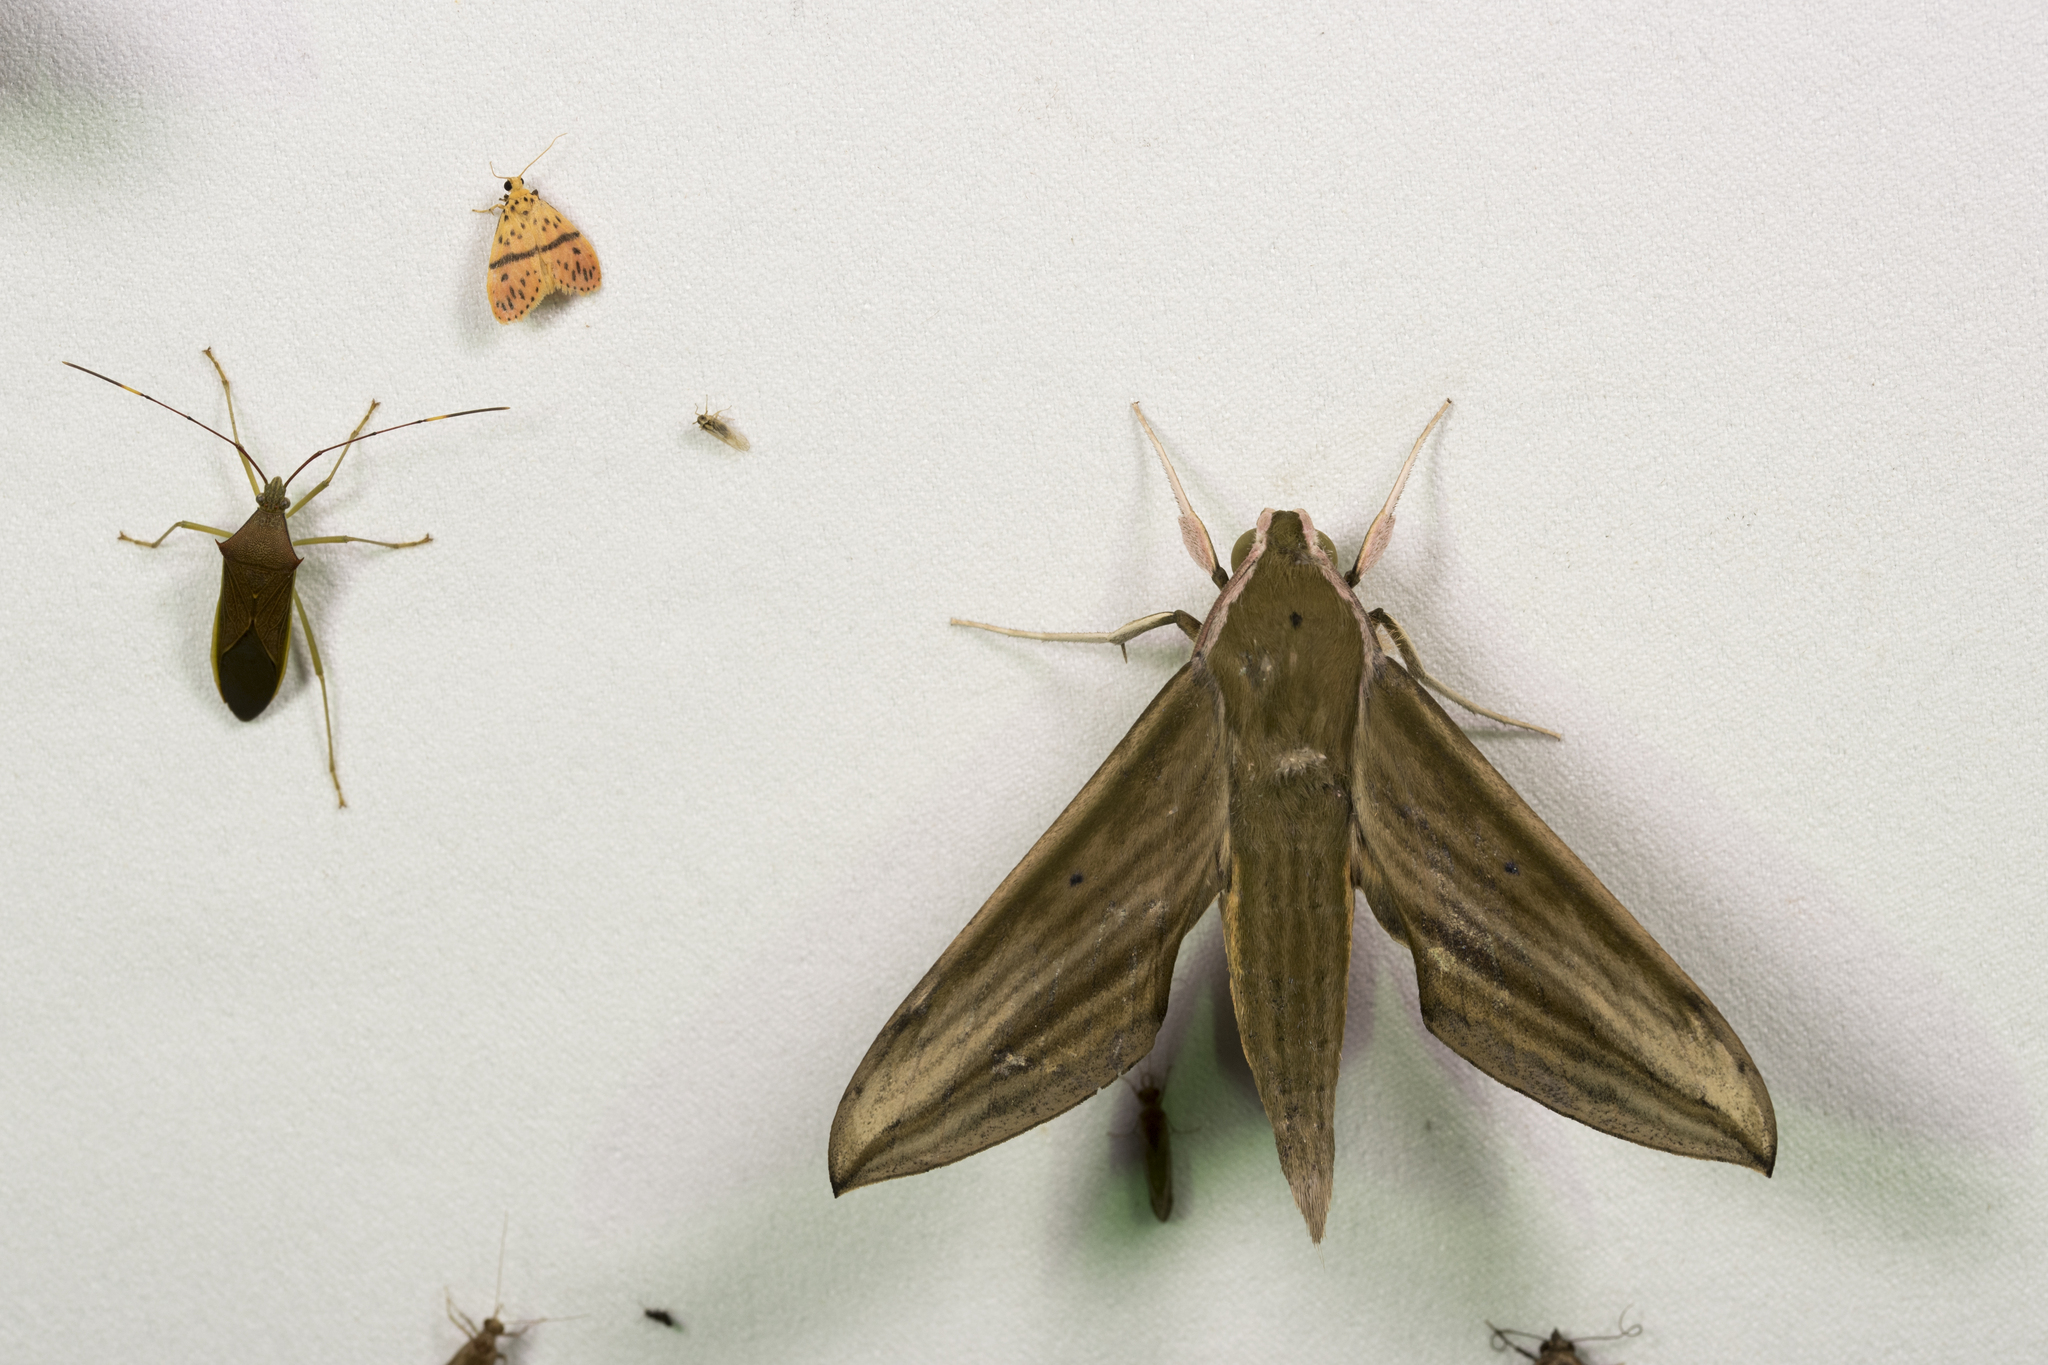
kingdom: Animalia
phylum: Arthropoda
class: Insecta
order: Lepidoptera
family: Sphingidae
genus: Cechetra
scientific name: Cechetra minor
